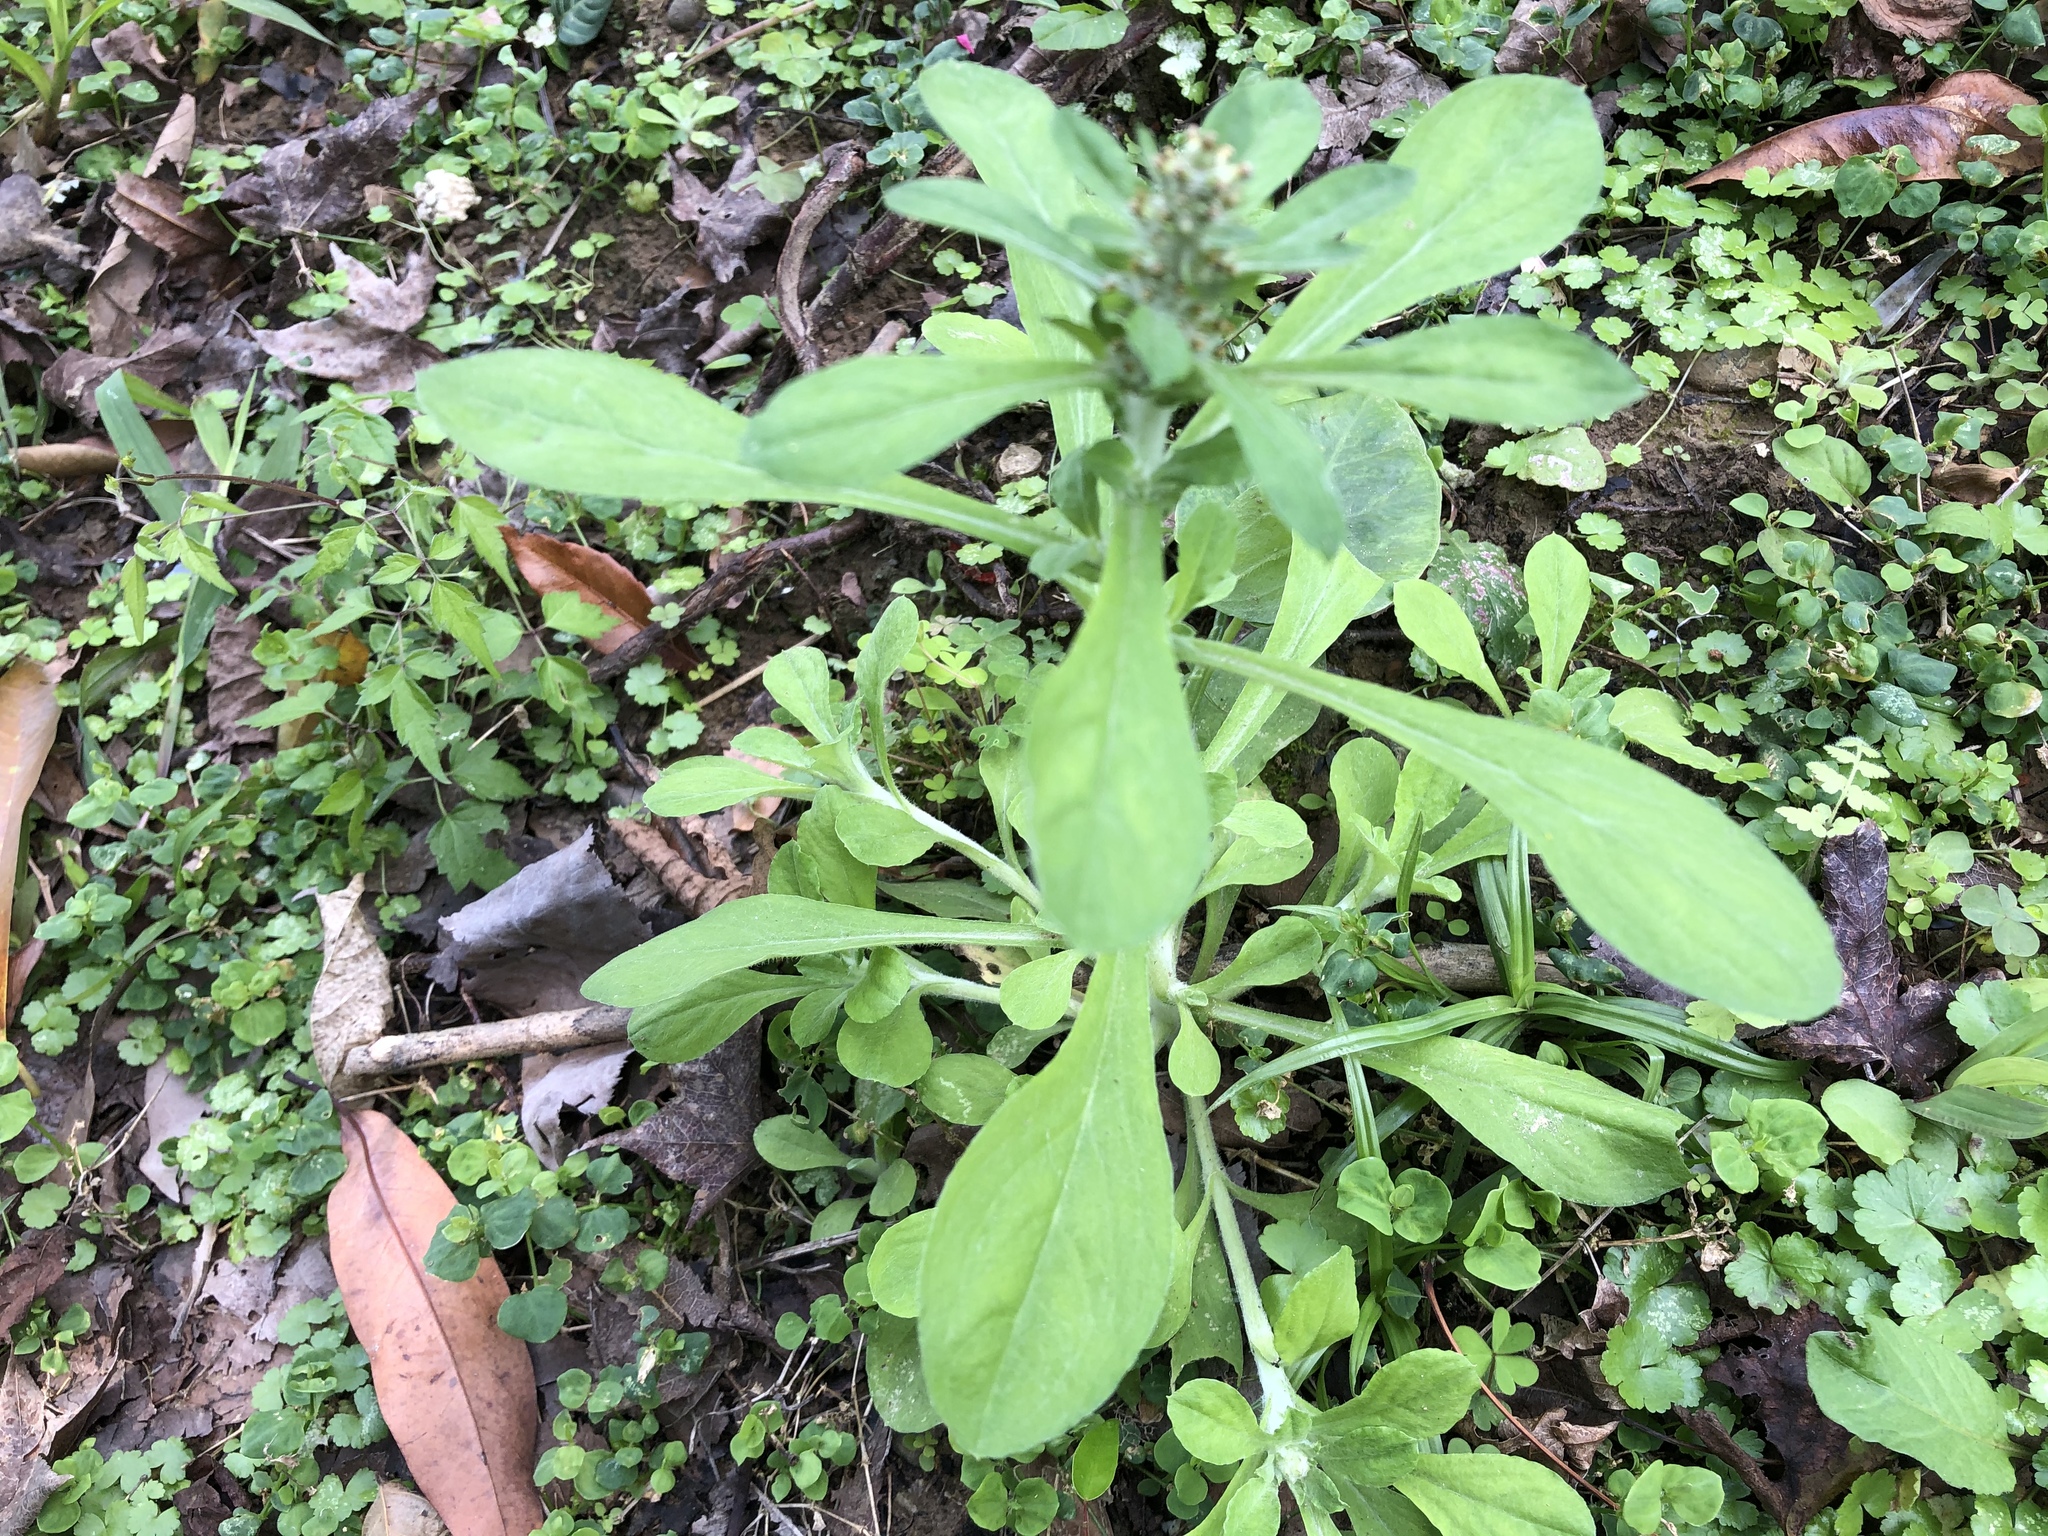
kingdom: Plantae
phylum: Tracheophyta
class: Magnoliopsida
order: Asterales
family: Asteraceae
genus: Gamochaeta
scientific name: Gamochaeta purpurea
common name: Purple cudweed
